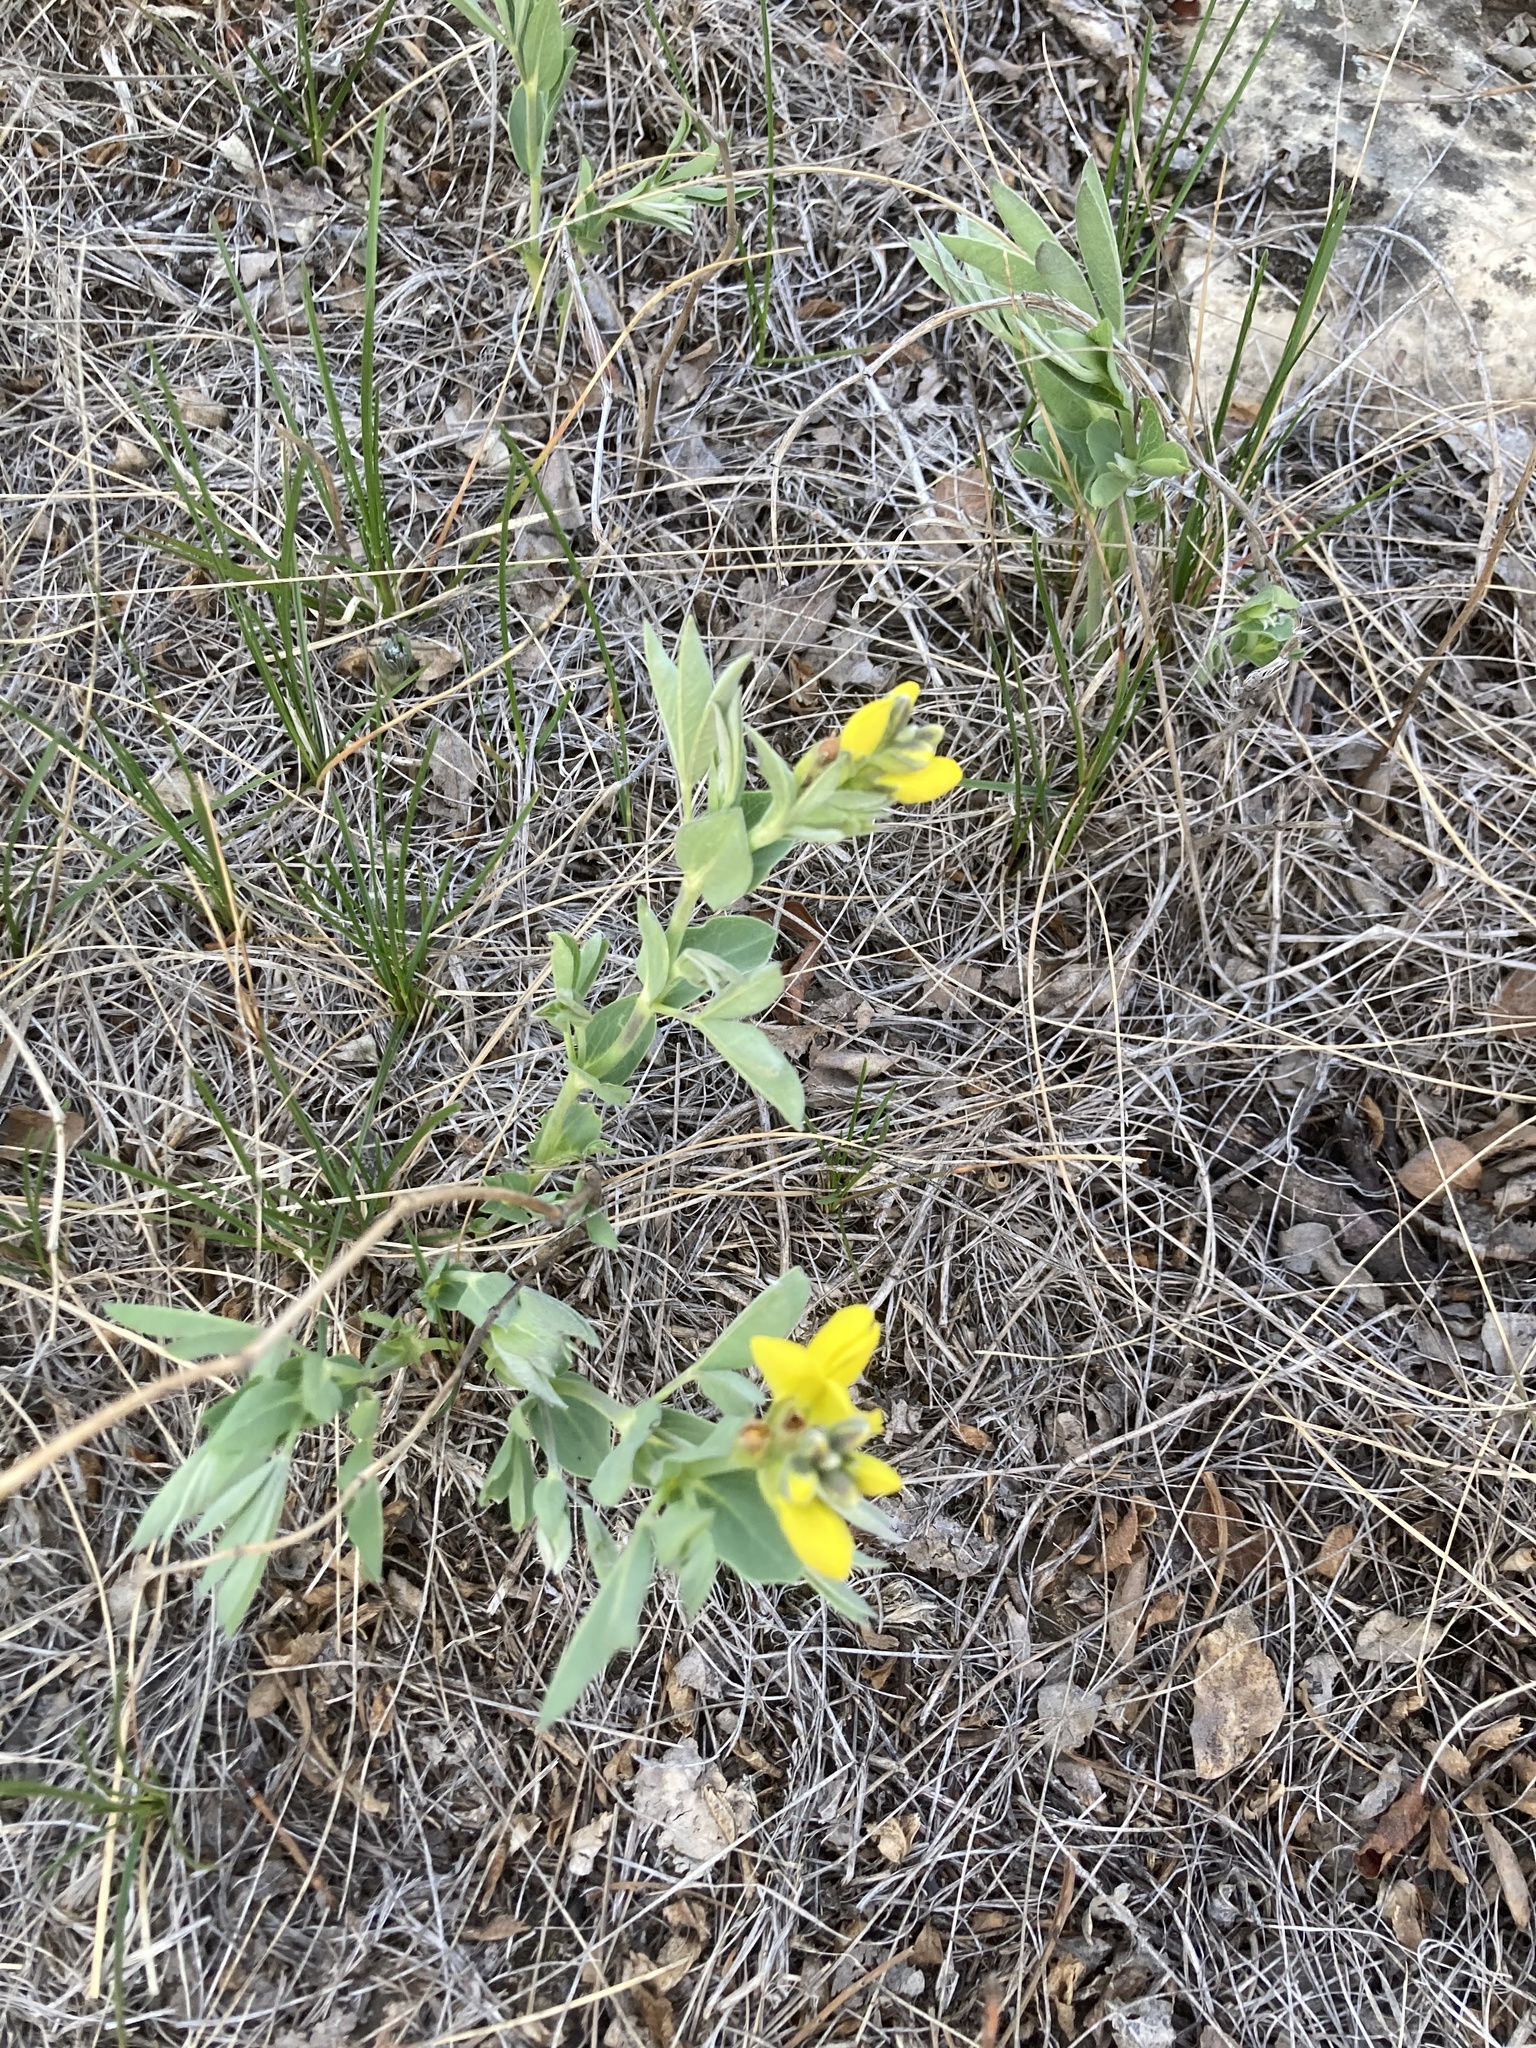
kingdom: Plantae
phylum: Tracheophyta
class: Magnoliopsida
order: Fabales
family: Fabaceae
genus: Thermopsis
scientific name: Thermopsis rhombifolia
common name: Circle-pod-pea
